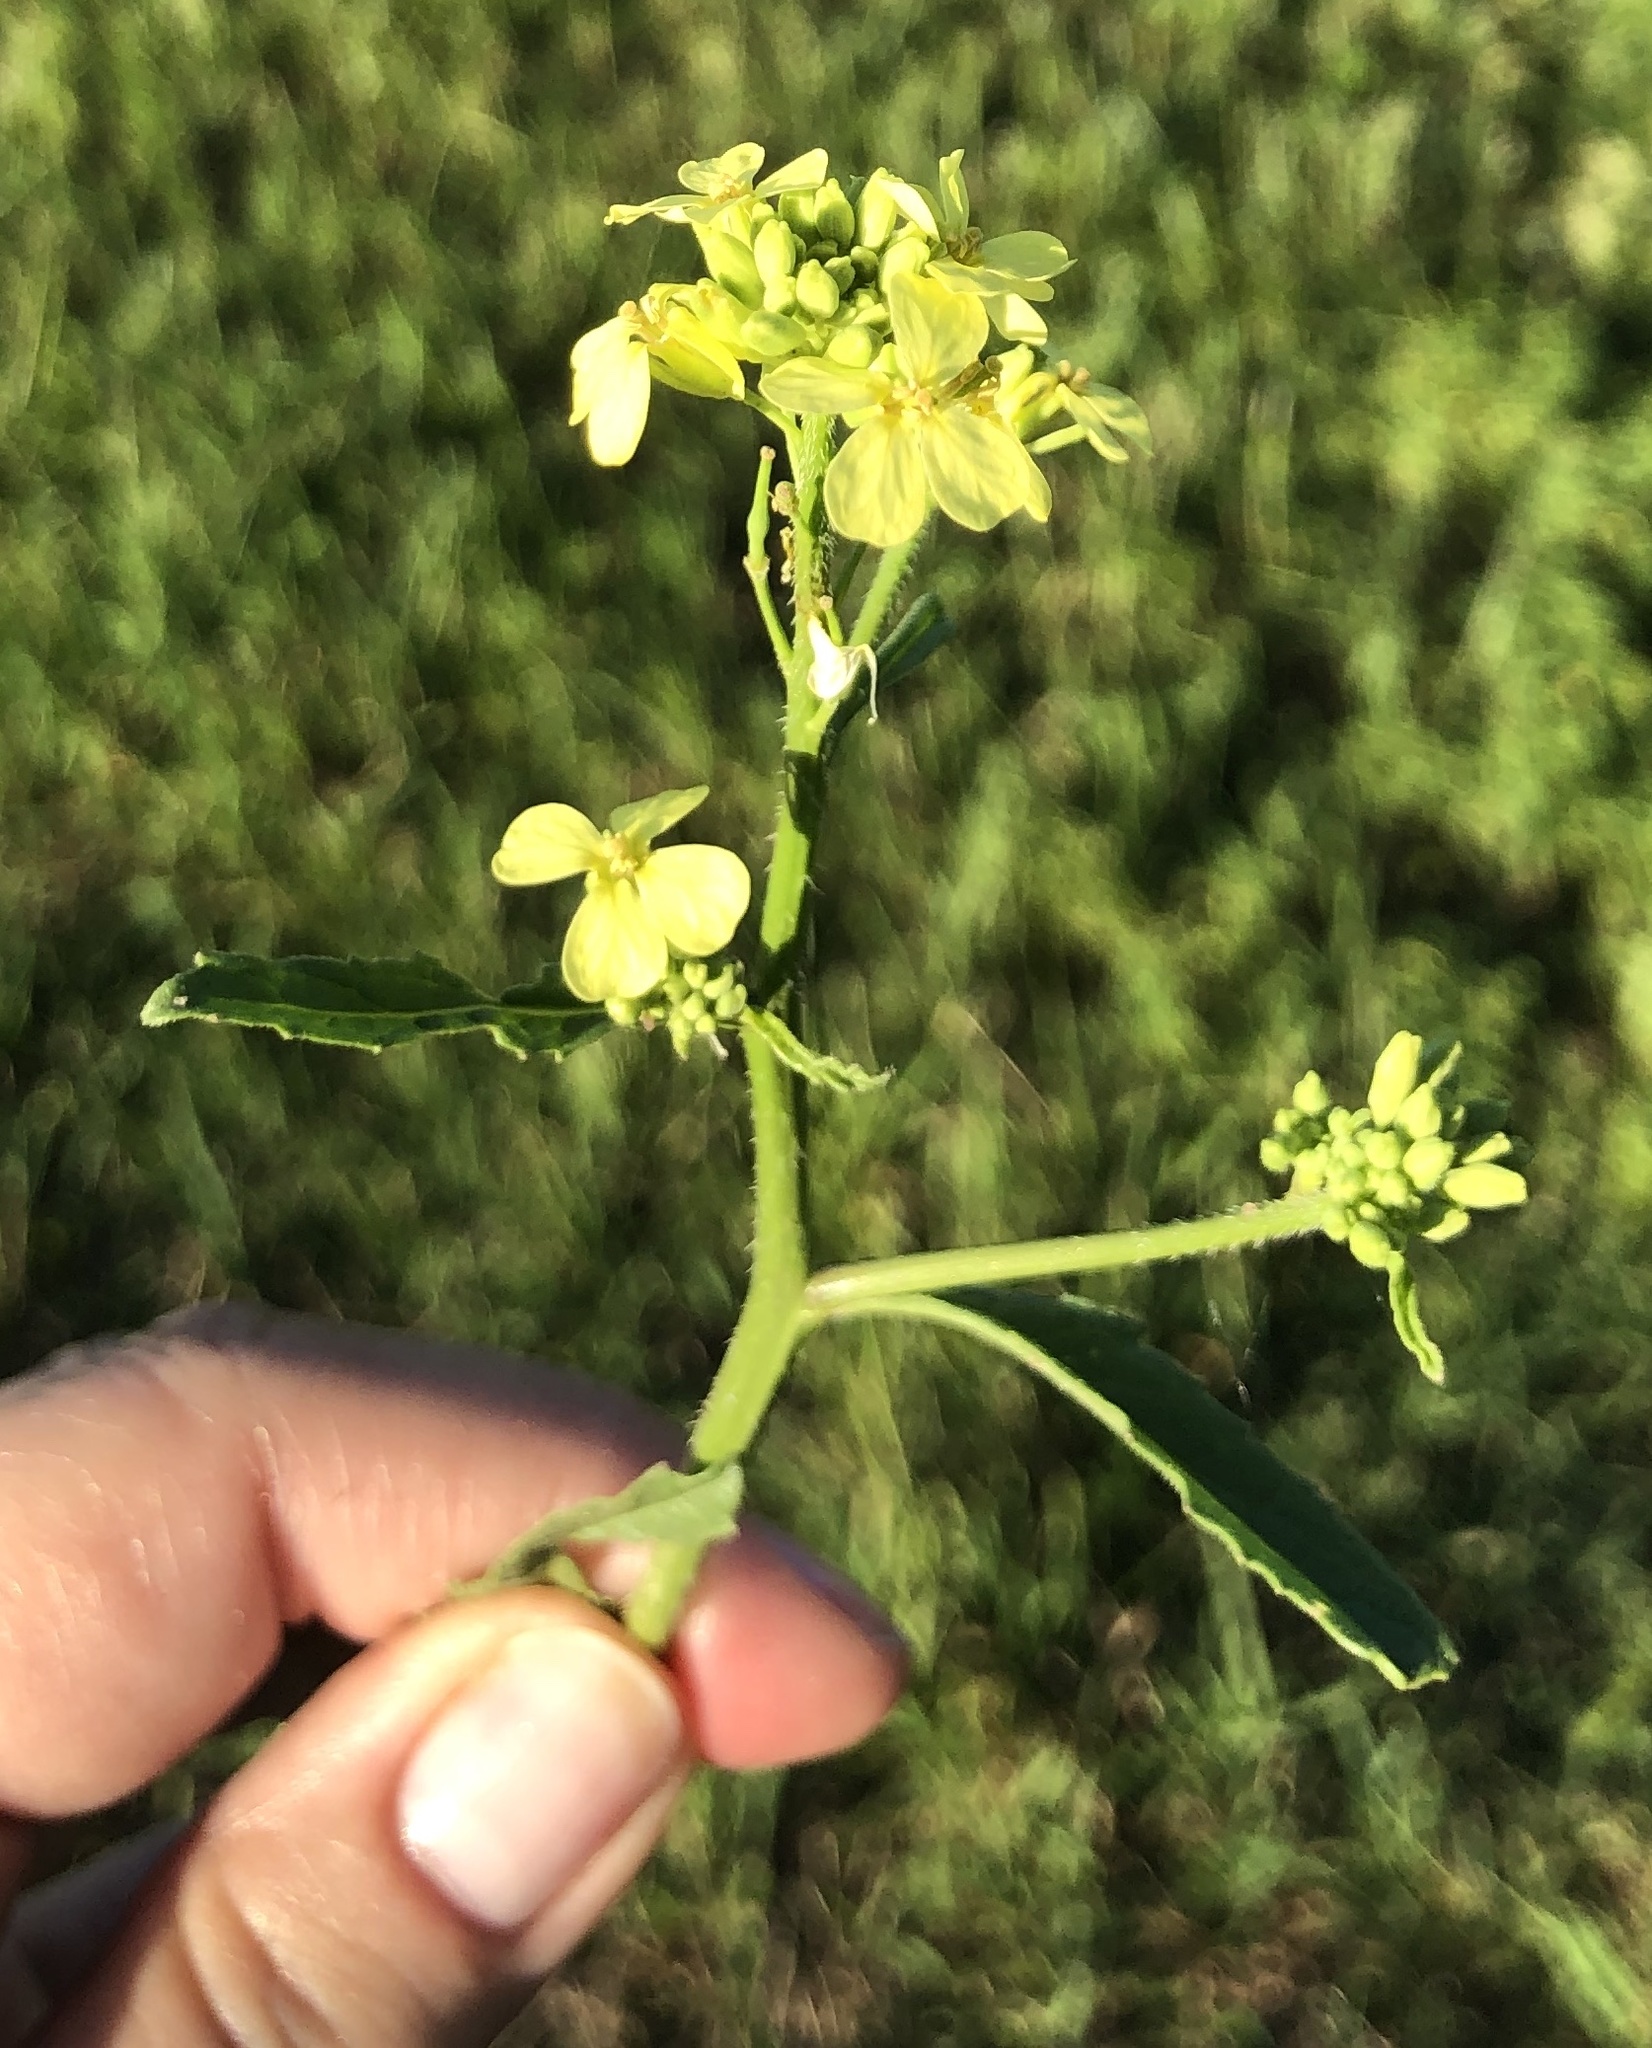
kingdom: Plantae
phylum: Tracheophyta
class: Magnoliopsida
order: Brassicales
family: Brassicaceae
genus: Rapistrum
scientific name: Rapistrum rugosum
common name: Annual bastardcabbage
